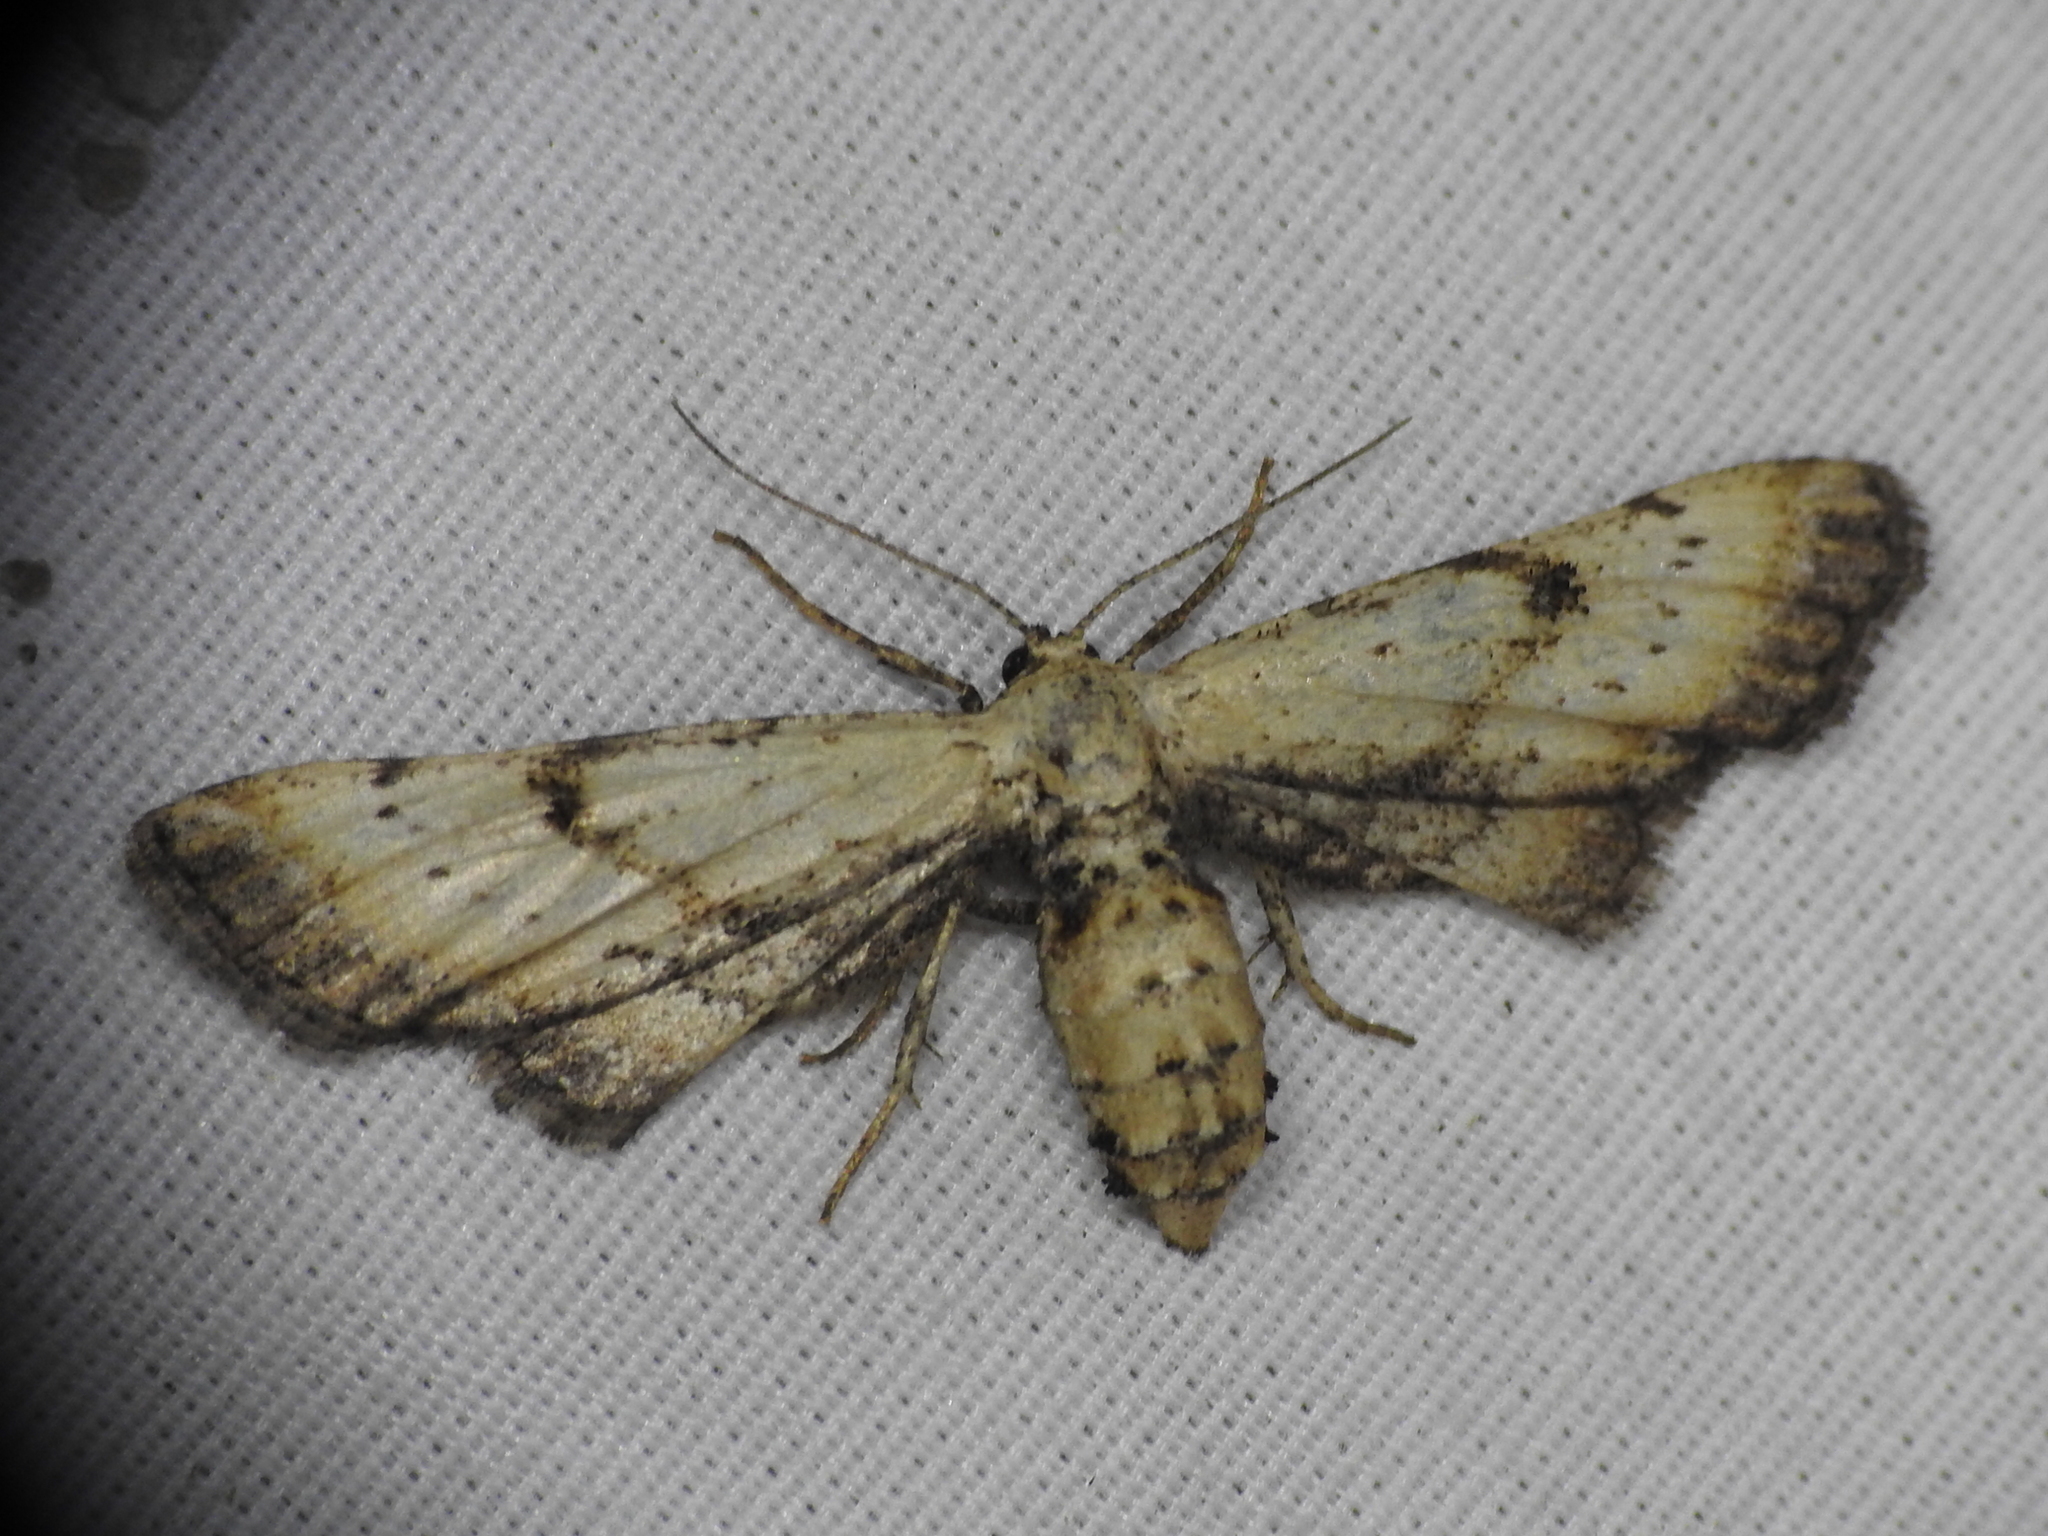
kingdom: Animalia
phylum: Arthropoda
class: Insecta
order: Lepidoptera
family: Geometridae
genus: Tornos
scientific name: Tornos scolopacinaria
